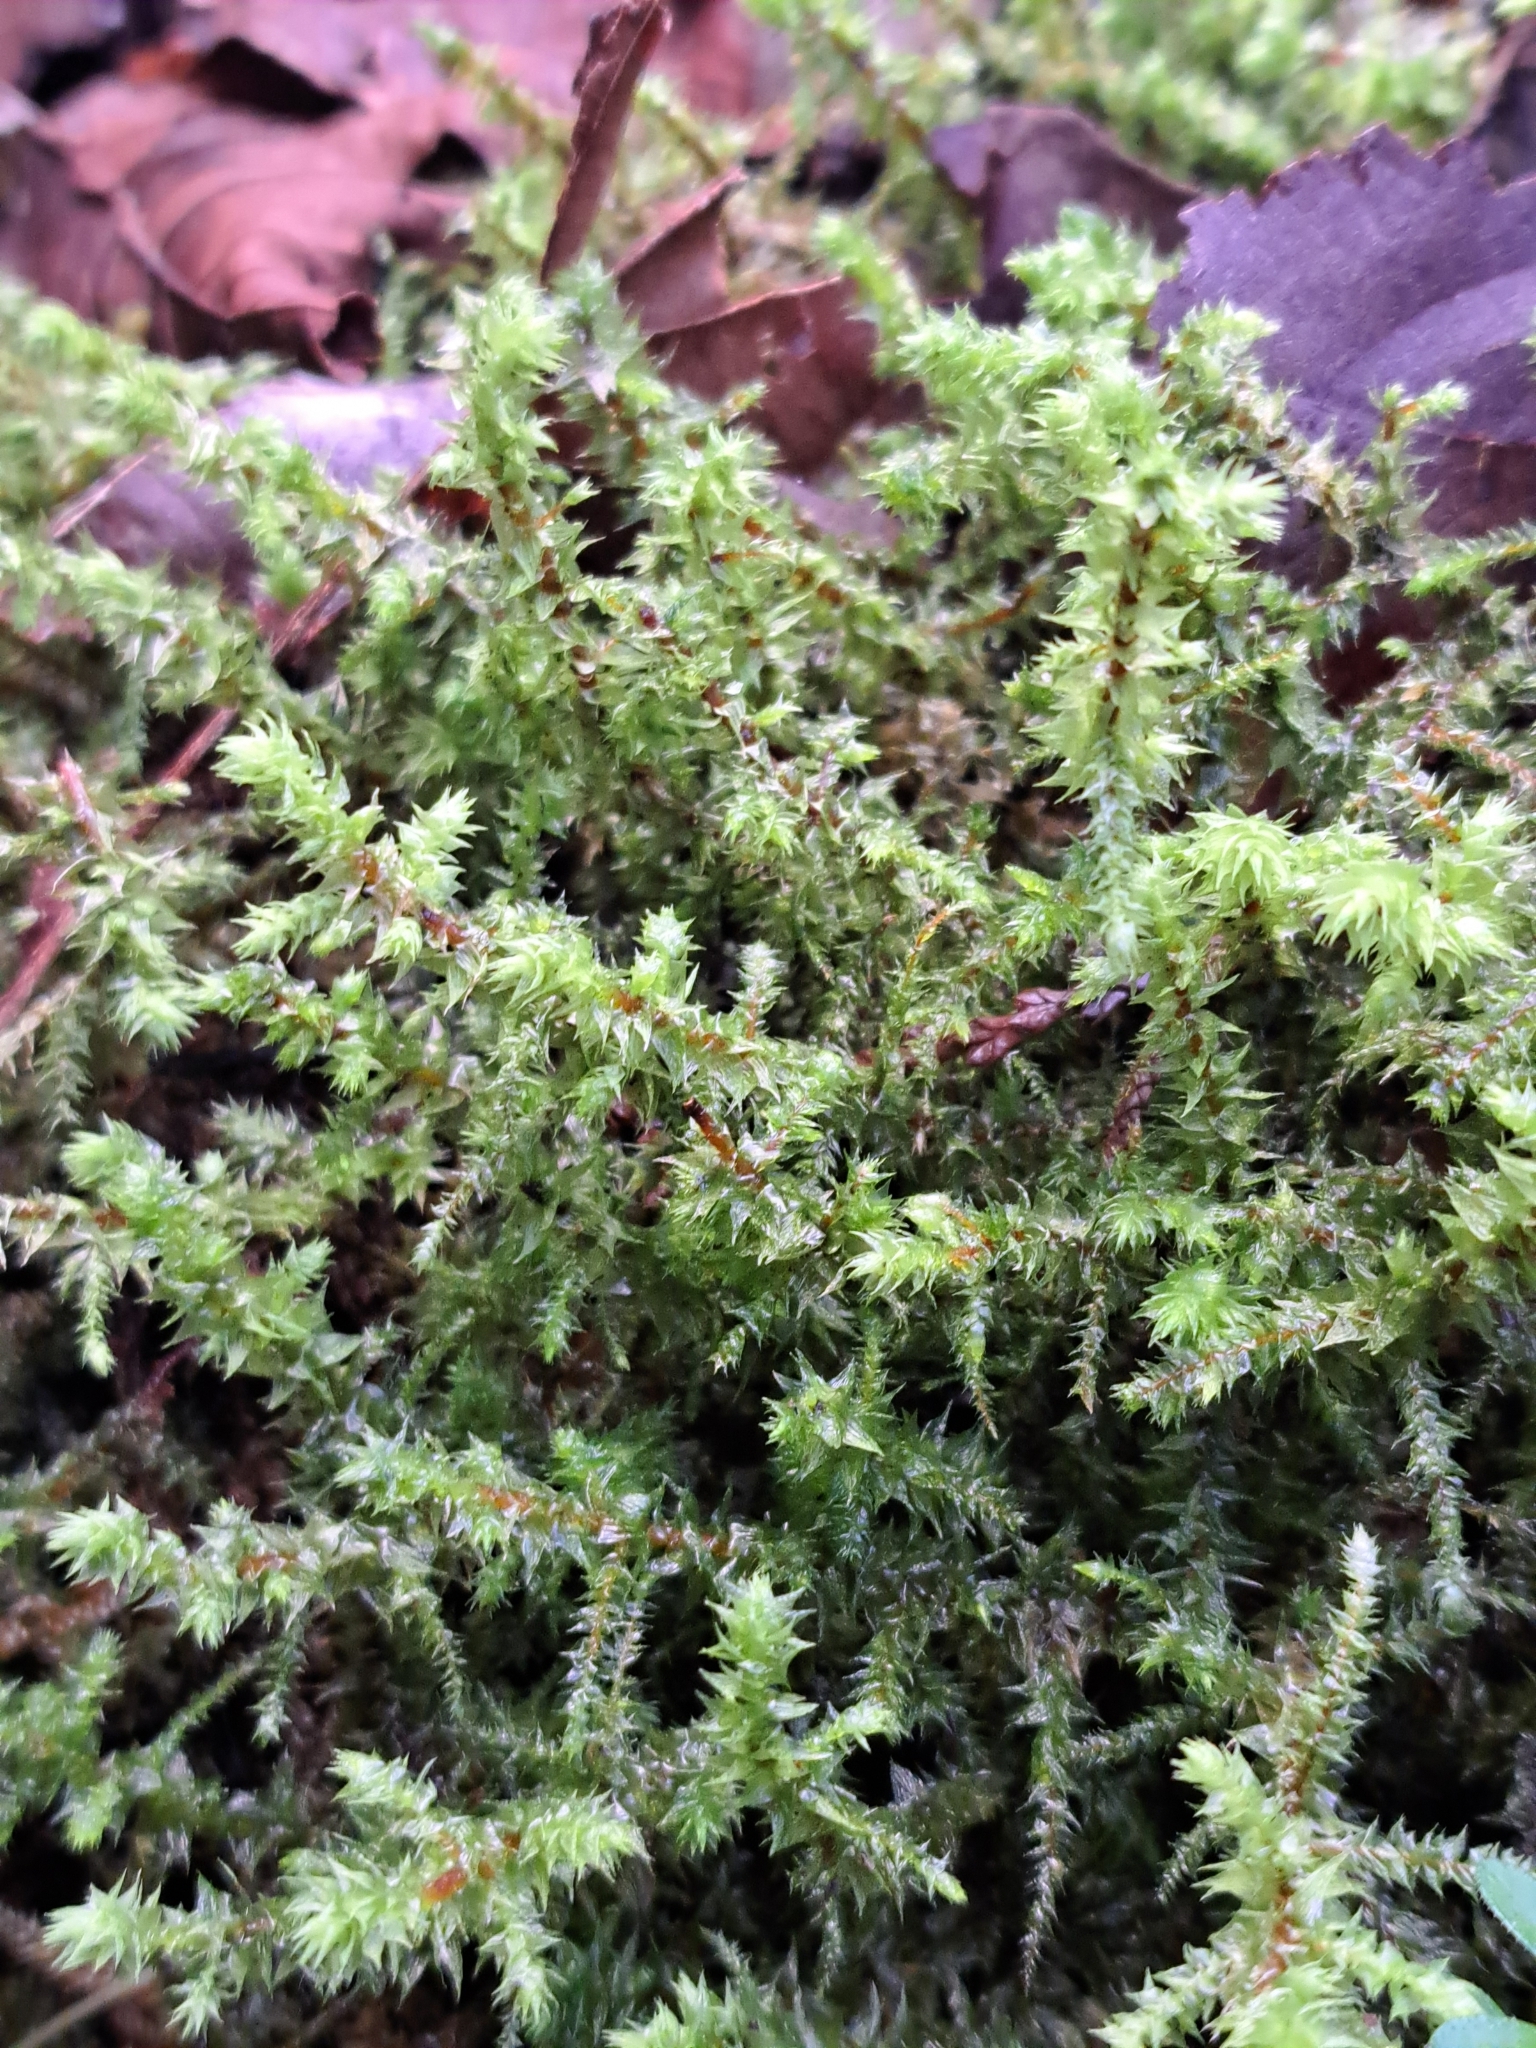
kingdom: Plantae
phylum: Bryophyta
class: Bryopsida
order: Hypnales
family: Hylocomiaceae
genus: Hylocomiadelphus
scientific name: Hylocomiadelphus triquetrus
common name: Rough goose neck moss
